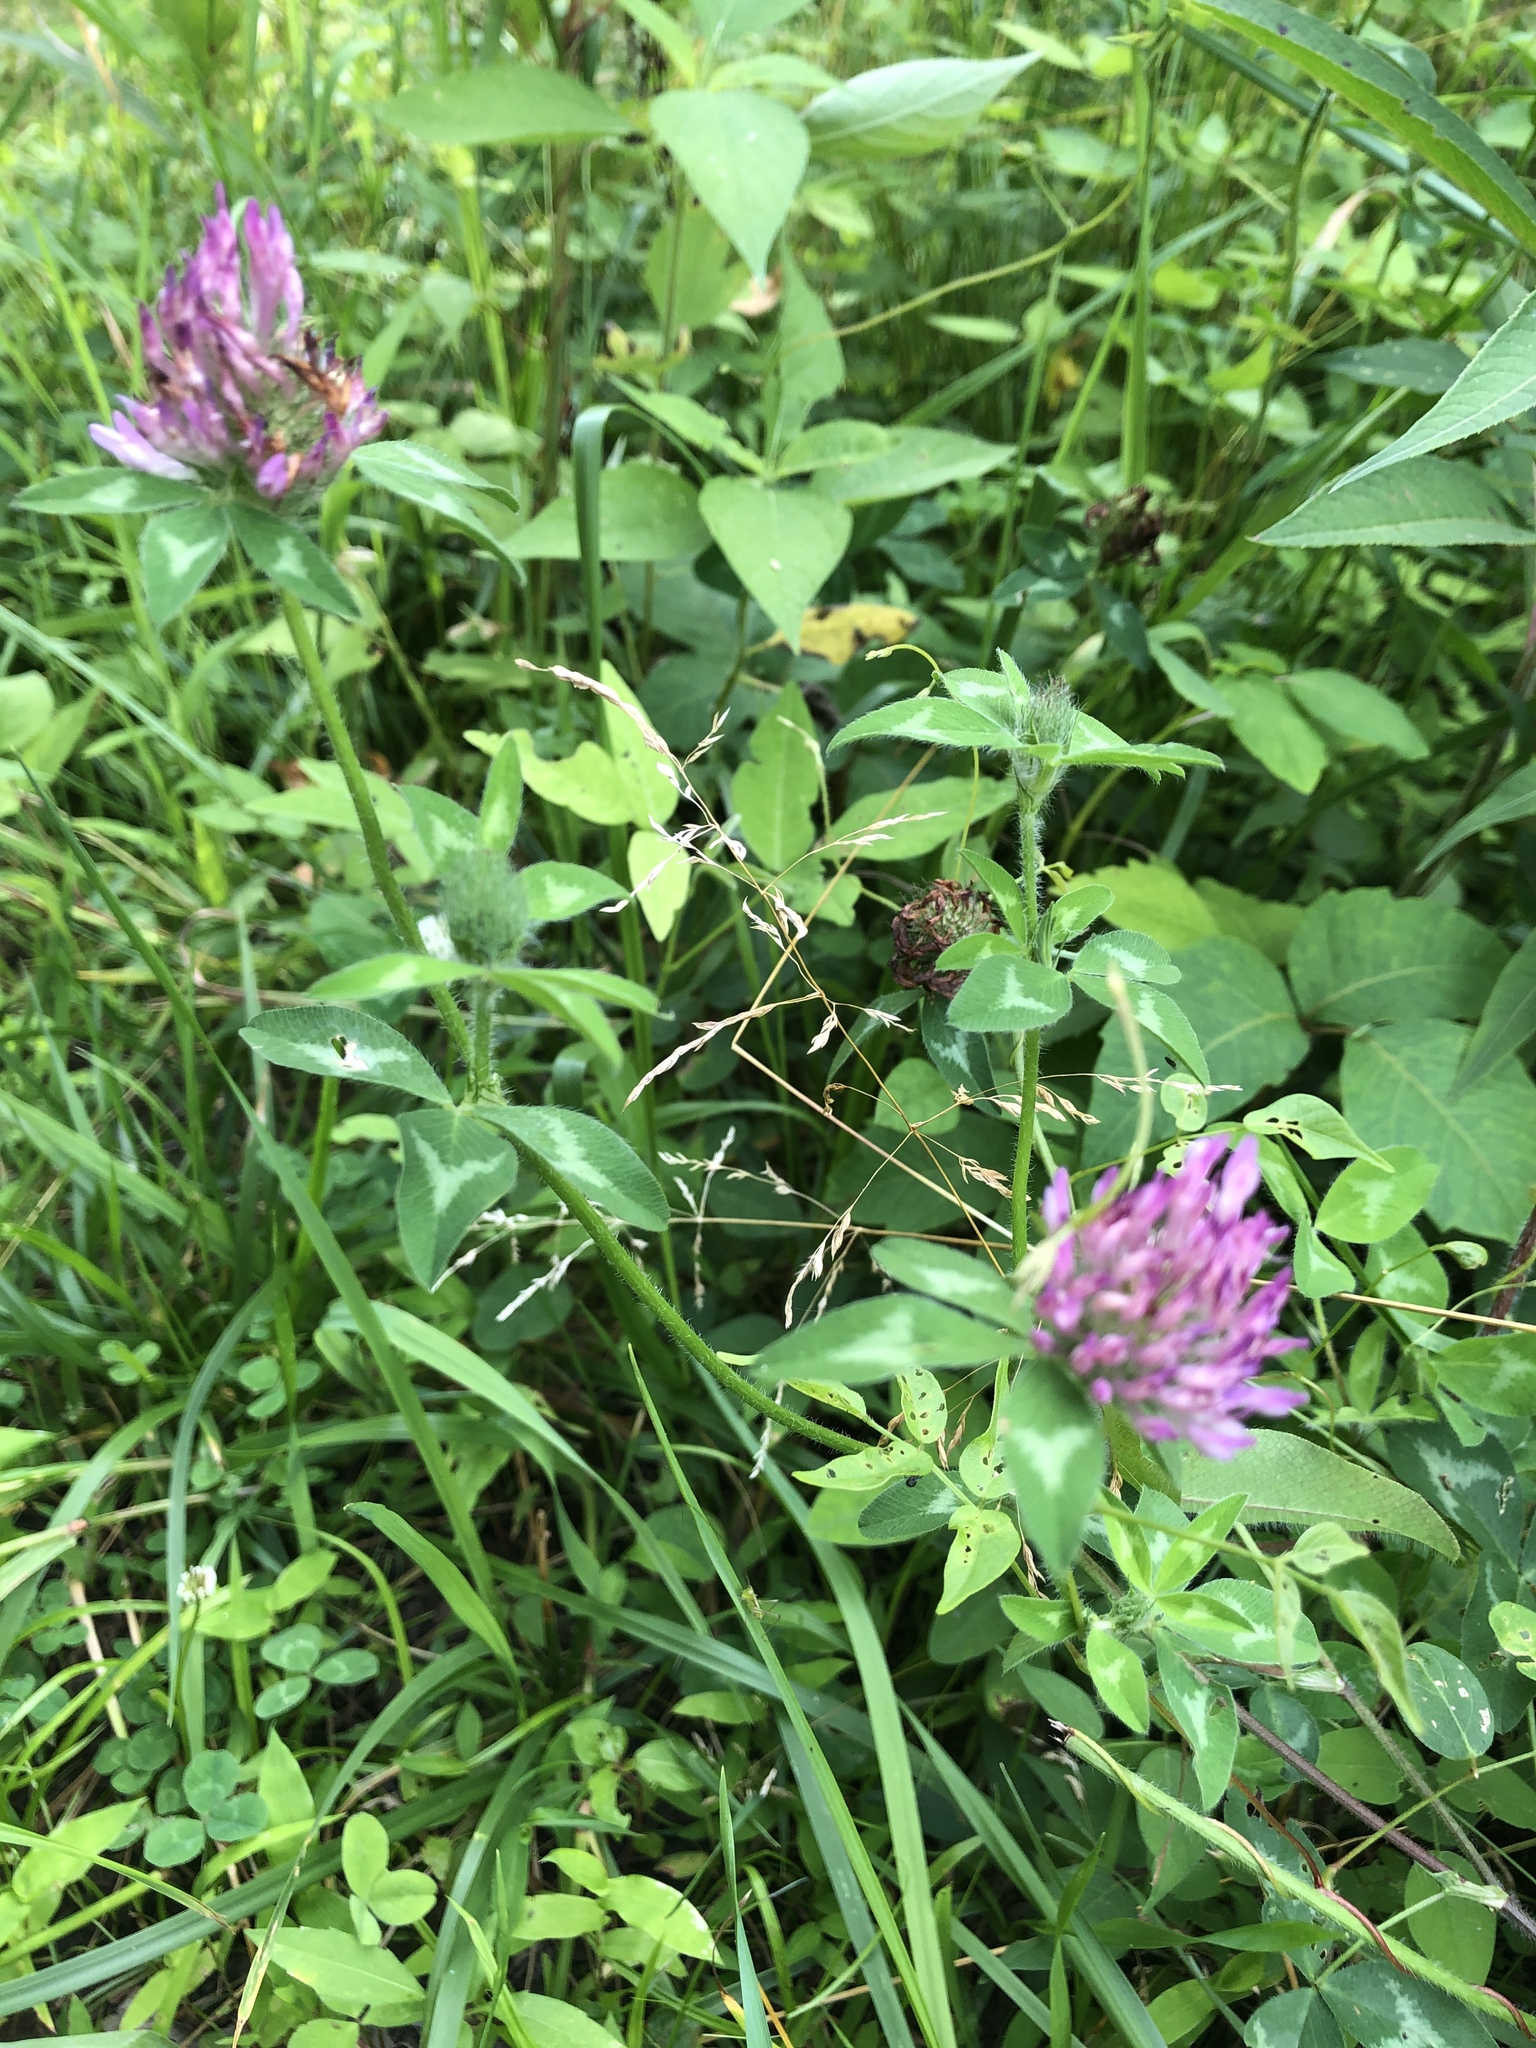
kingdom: Plantae
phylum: Tracheophyta
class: Magnoliopsida
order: Fabales
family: Fabaceae
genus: Trifolium
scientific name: Trifolium pratense
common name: Red clover
